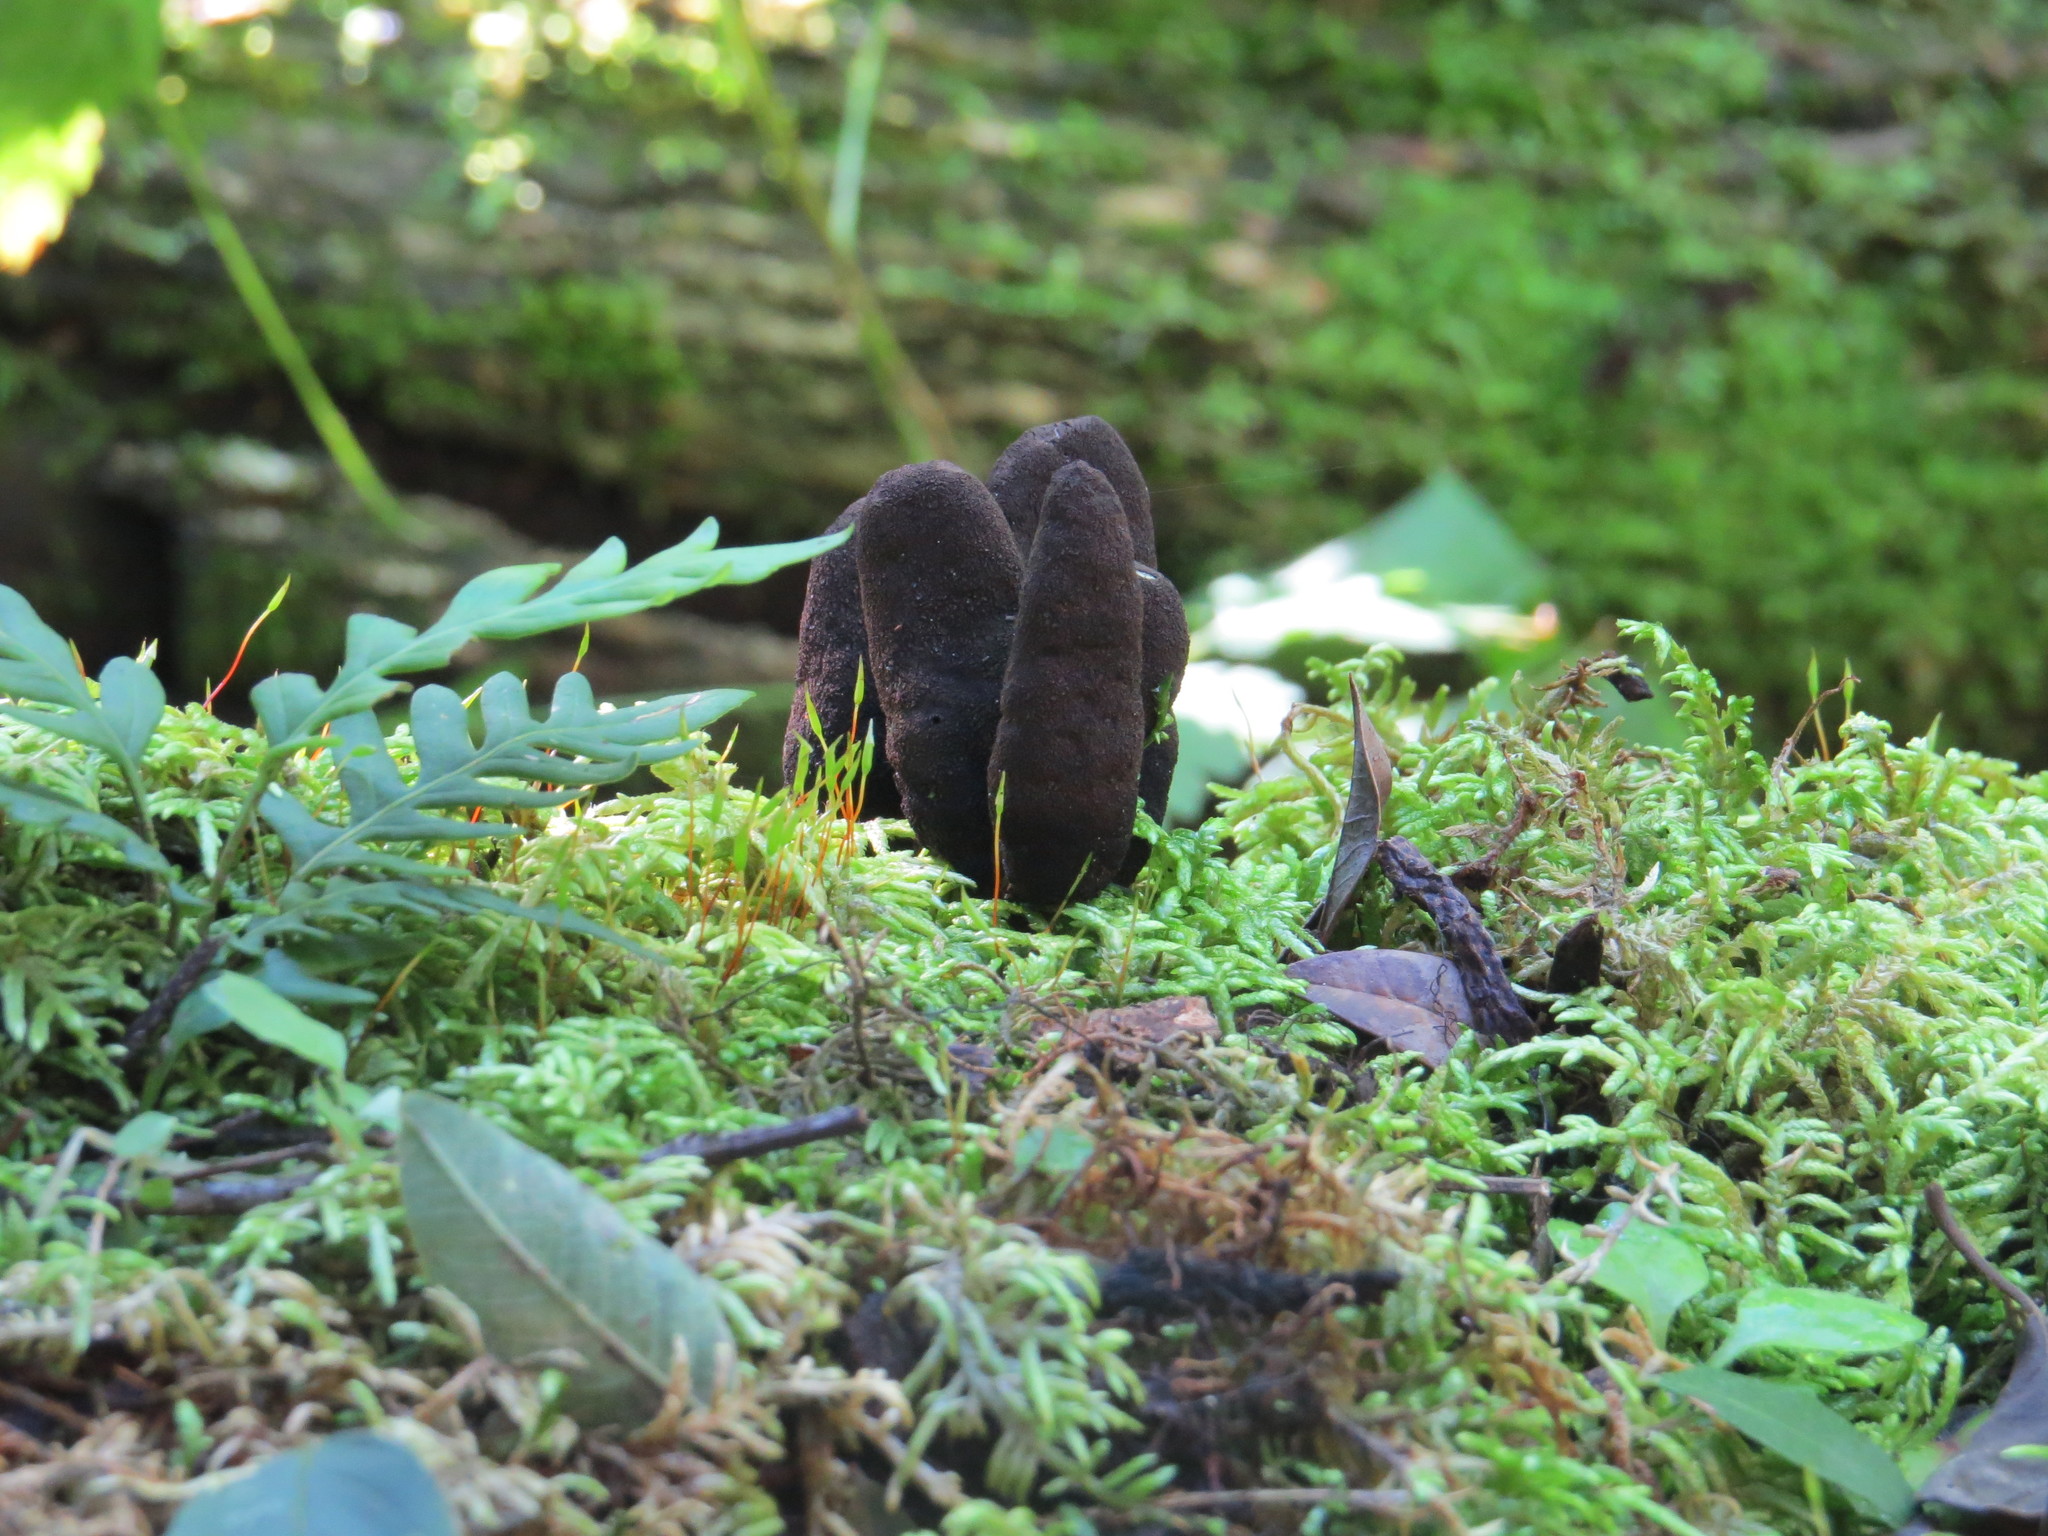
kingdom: Fungi
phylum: Ascomycota
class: Sordariomycetes
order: Xylariales
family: Xylariaceae
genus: Xylaria
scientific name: Xylaria polymorpha
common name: Dead man's fingers
